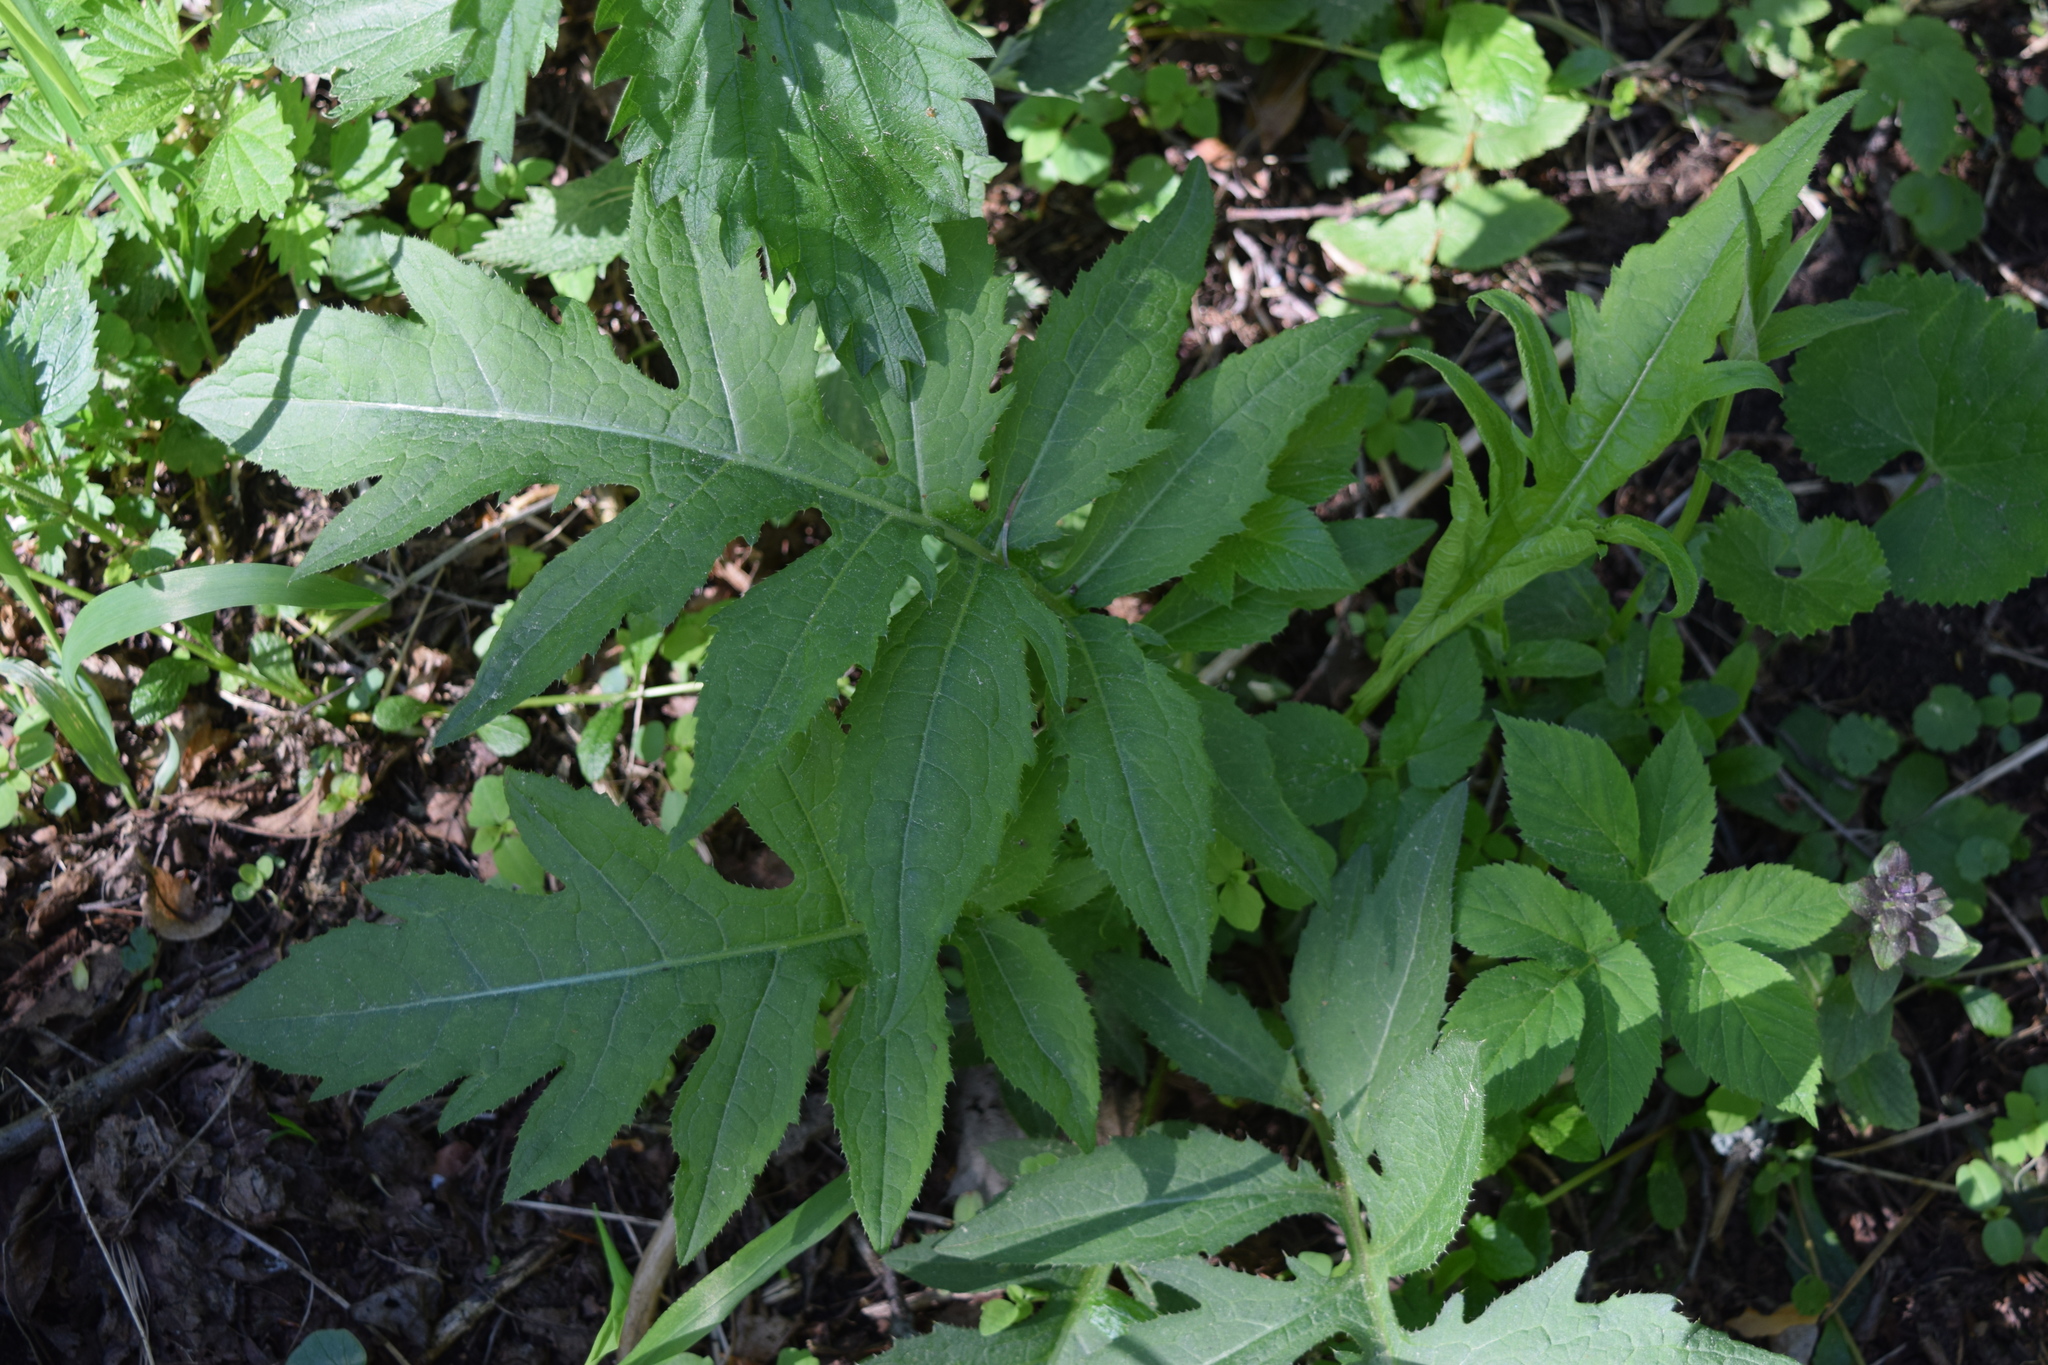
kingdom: Plantae
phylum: Tracheophyta
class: Magnoliopsida
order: Asterales
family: Asteraceae
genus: Cirsium
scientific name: Cirsium oleraceum
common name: Cabbage thistle
